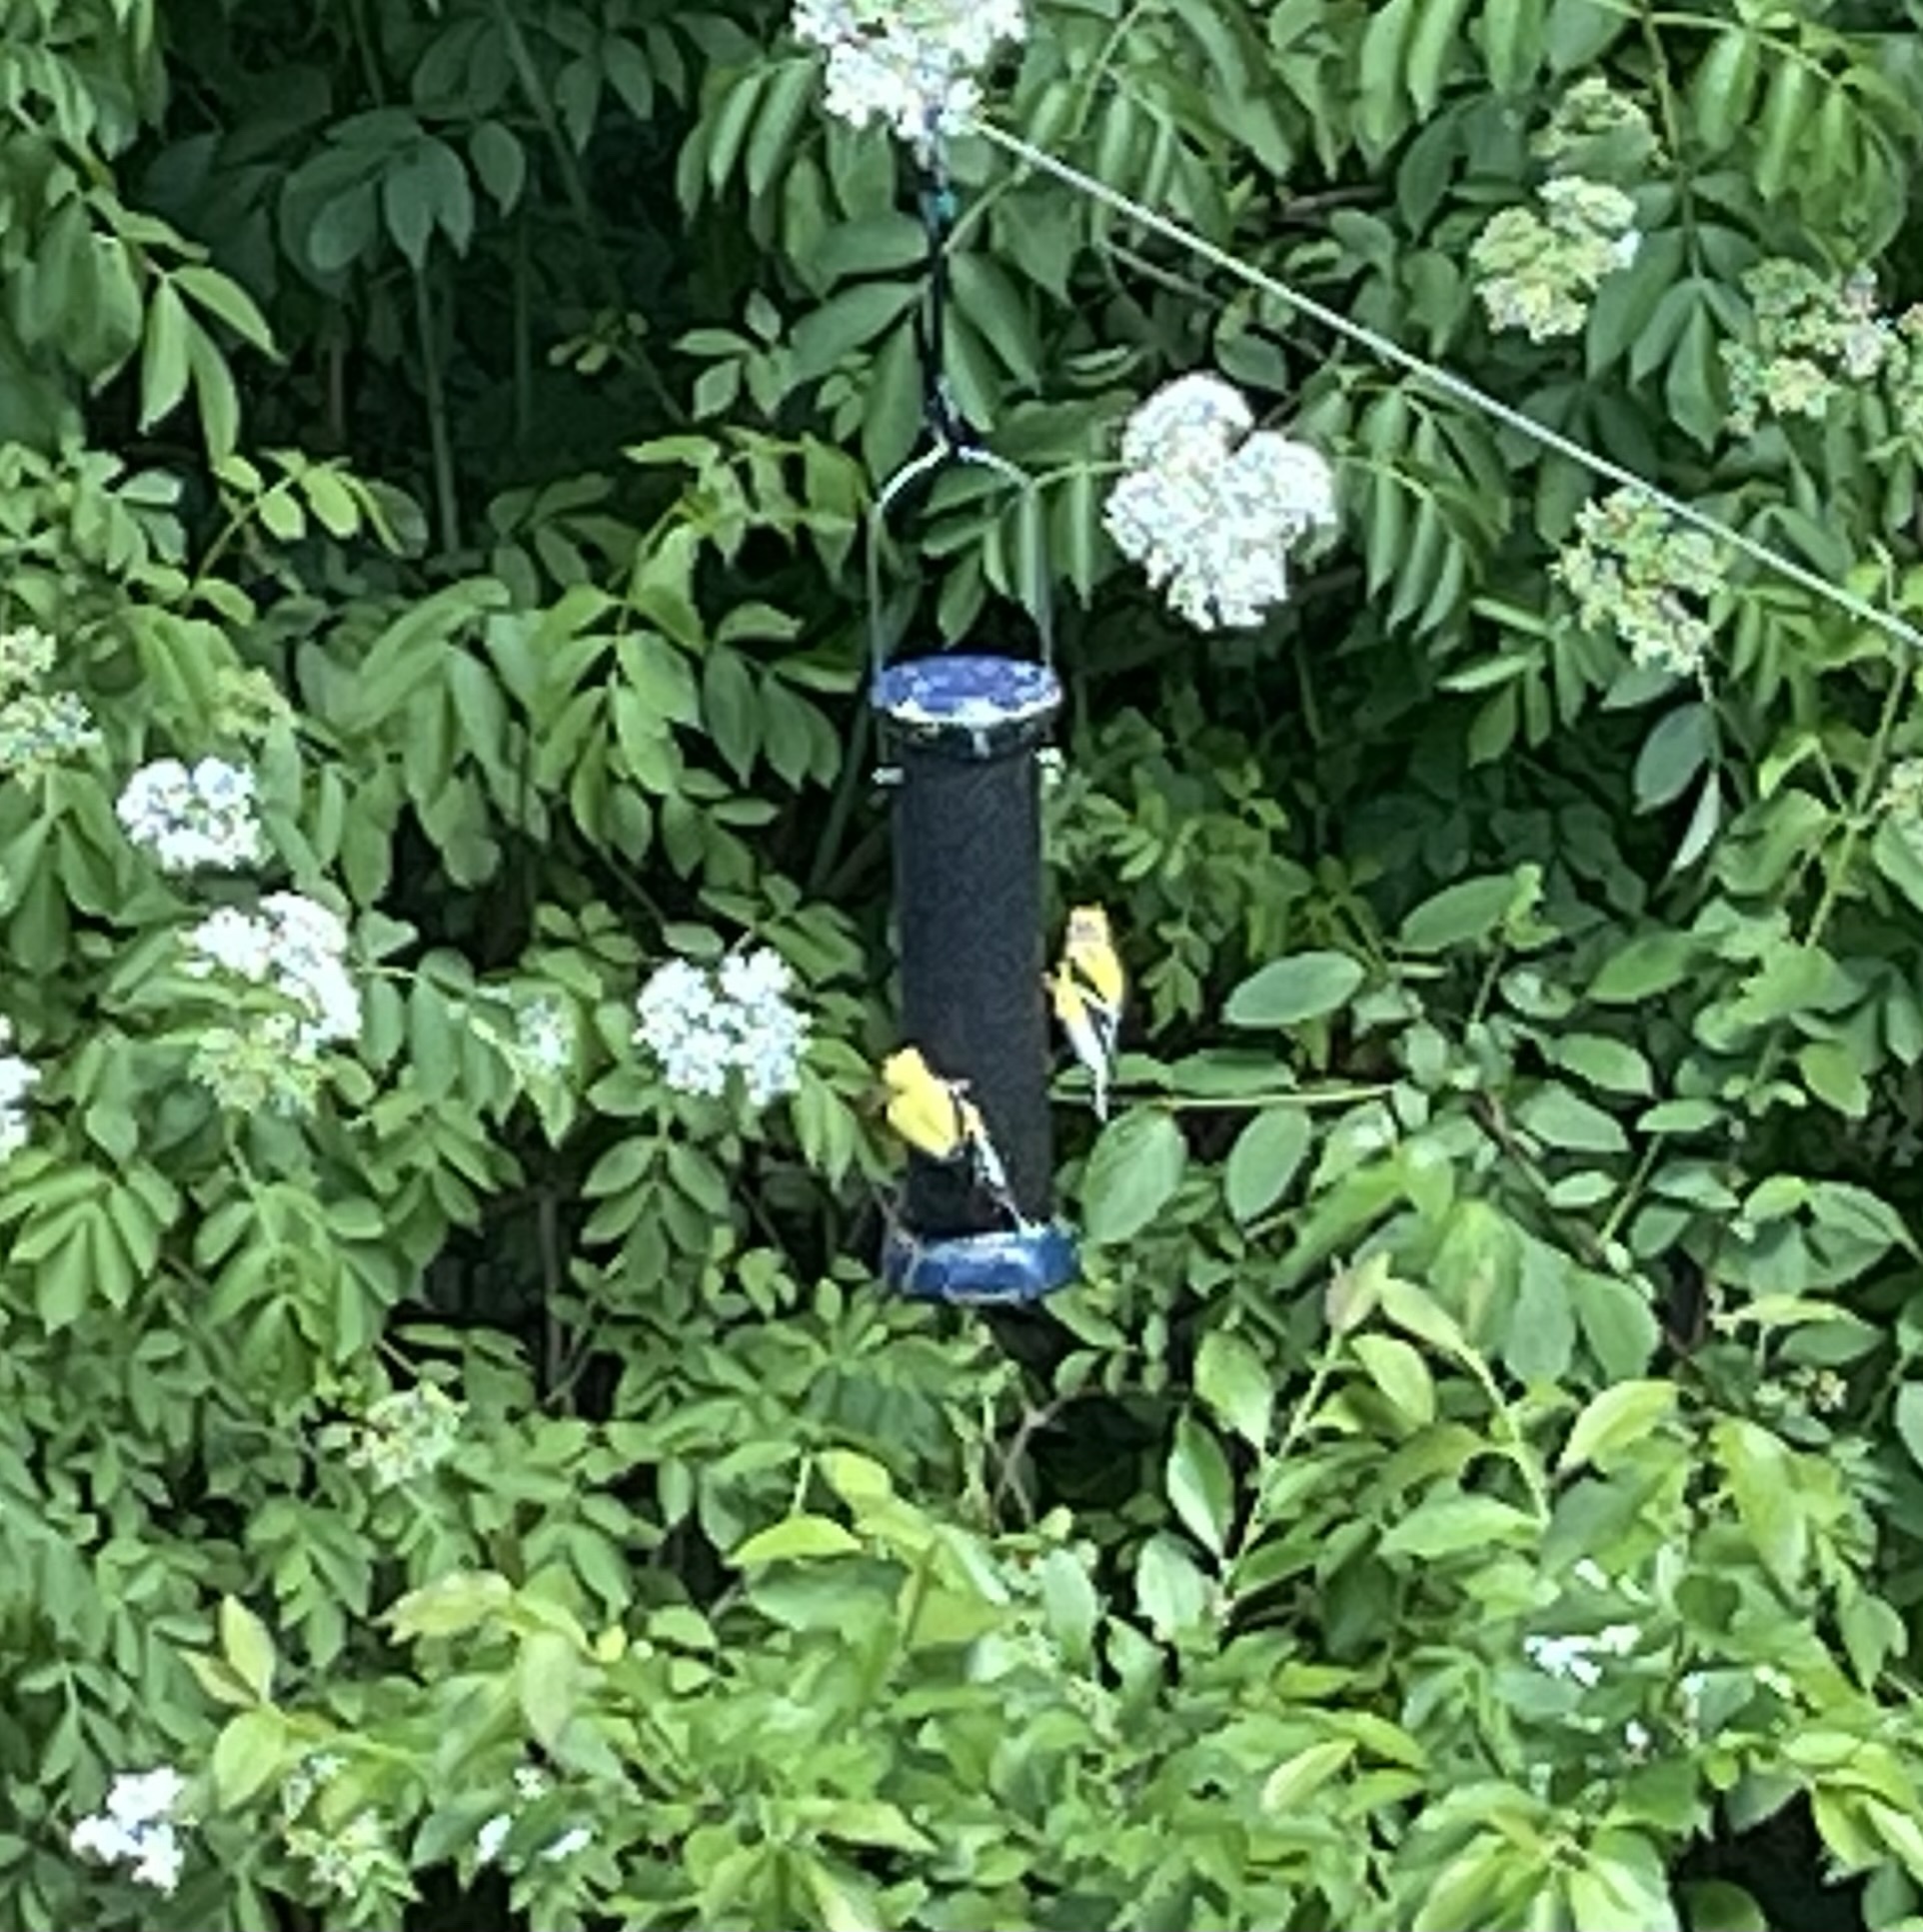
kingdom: Animalia
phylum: Chordata
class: Aves
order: Passeriformes
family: Fringillidae
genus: Spinus
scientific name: Spinus tristis
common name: American goldfinch
